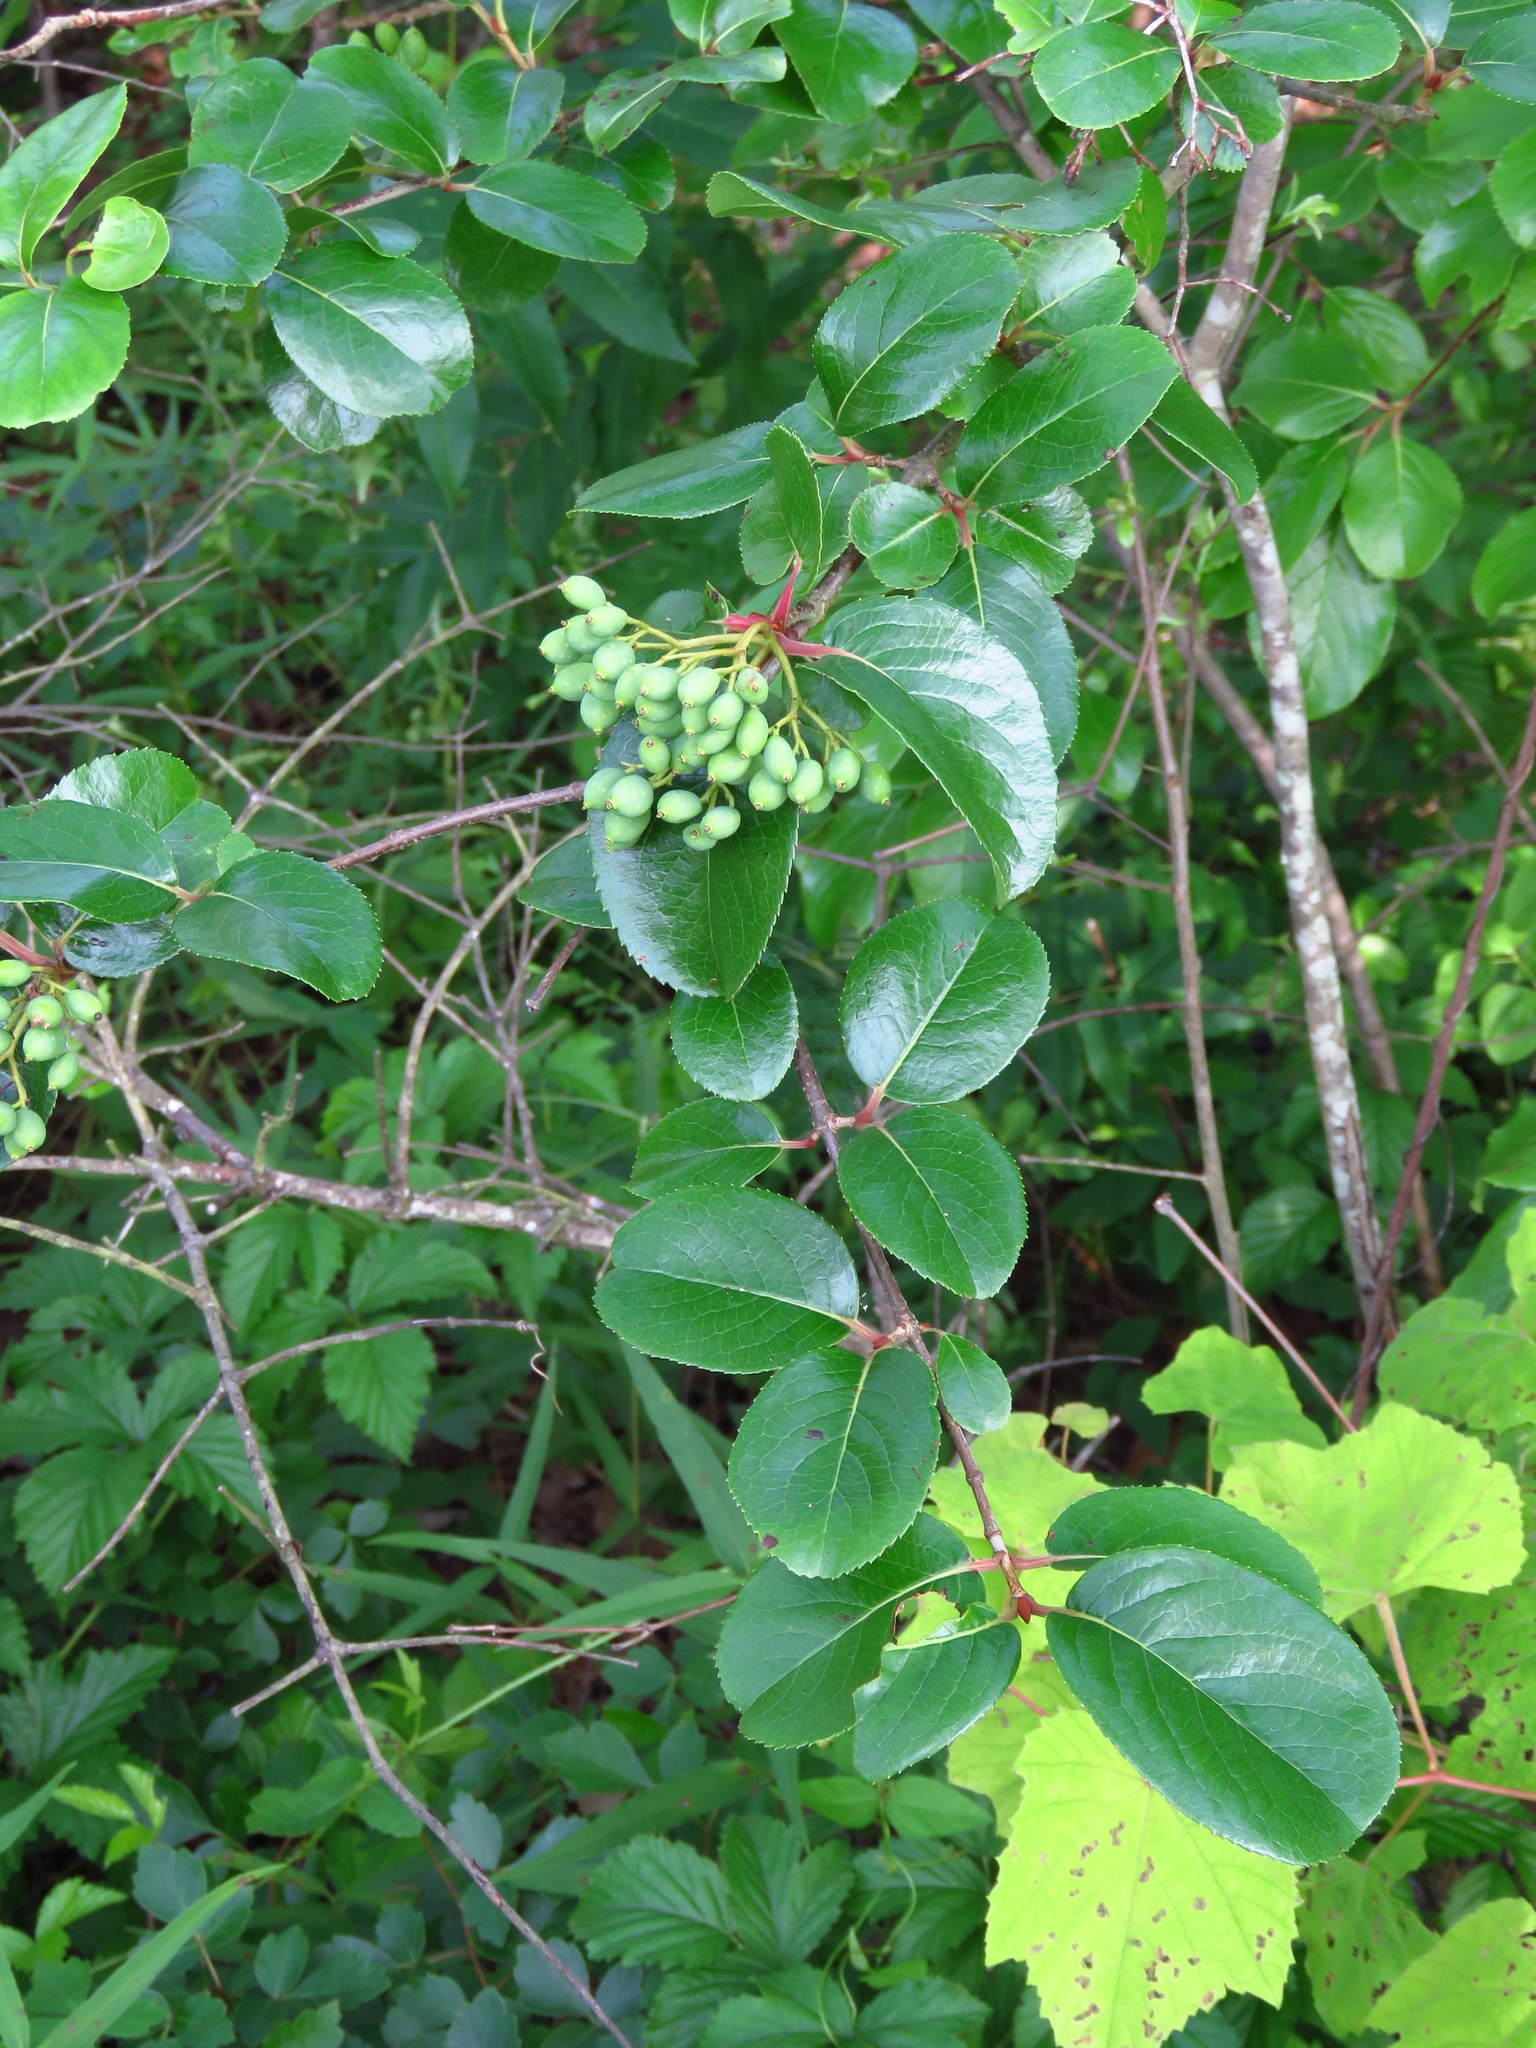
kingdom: Plantae
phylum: Tracheophyta
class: Magnoliopsida
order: Dipsacales
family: Viburnaceae
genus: Viburnum
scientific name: Viburnum rufidulum
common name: Blue haw
